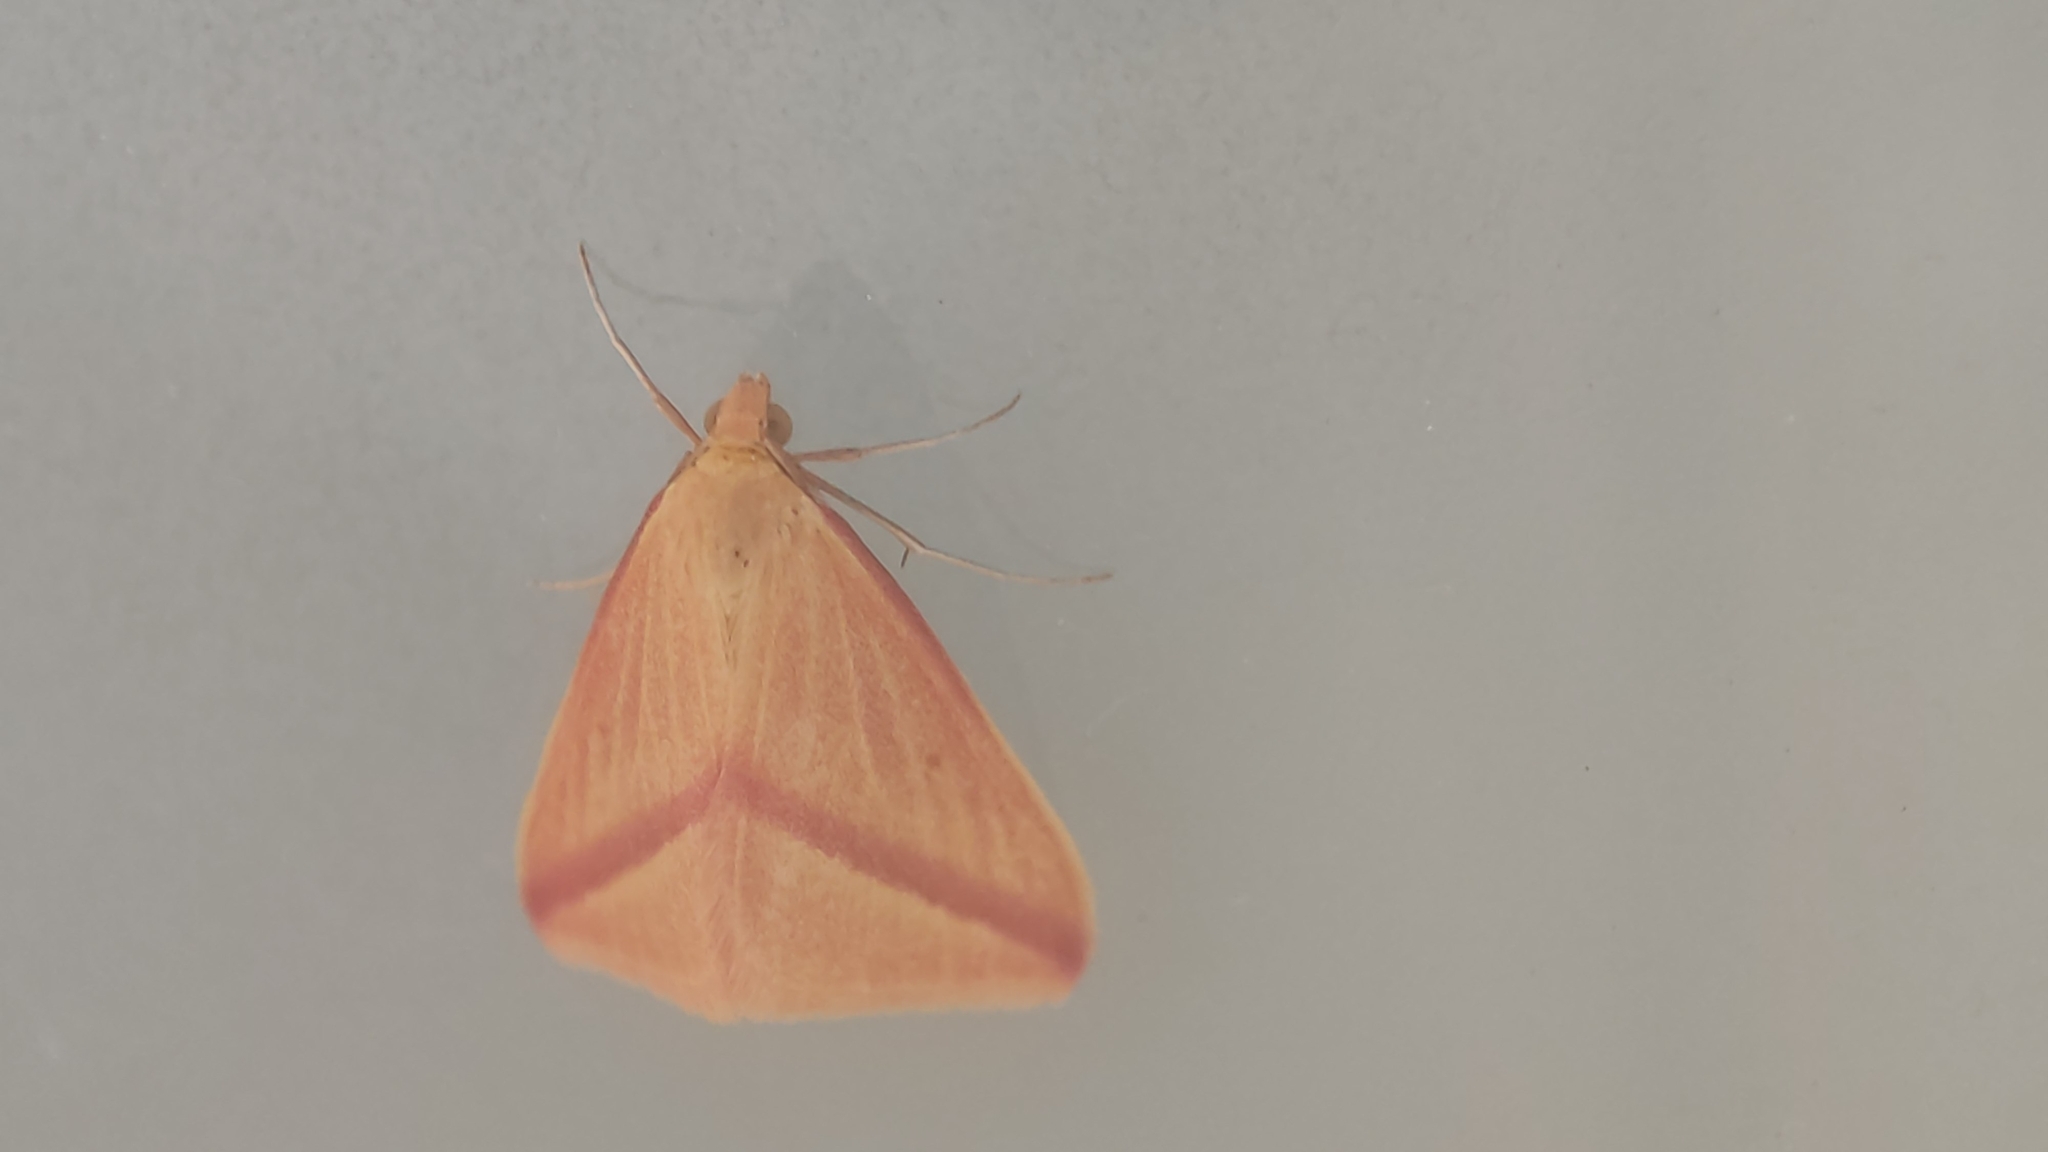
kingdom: Animalia
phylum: Arthropoda
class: Insecta
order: Lepidoptera
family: Geometridae
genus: Rhodometra
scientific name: Rhodometra sacraria
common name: Vestal
